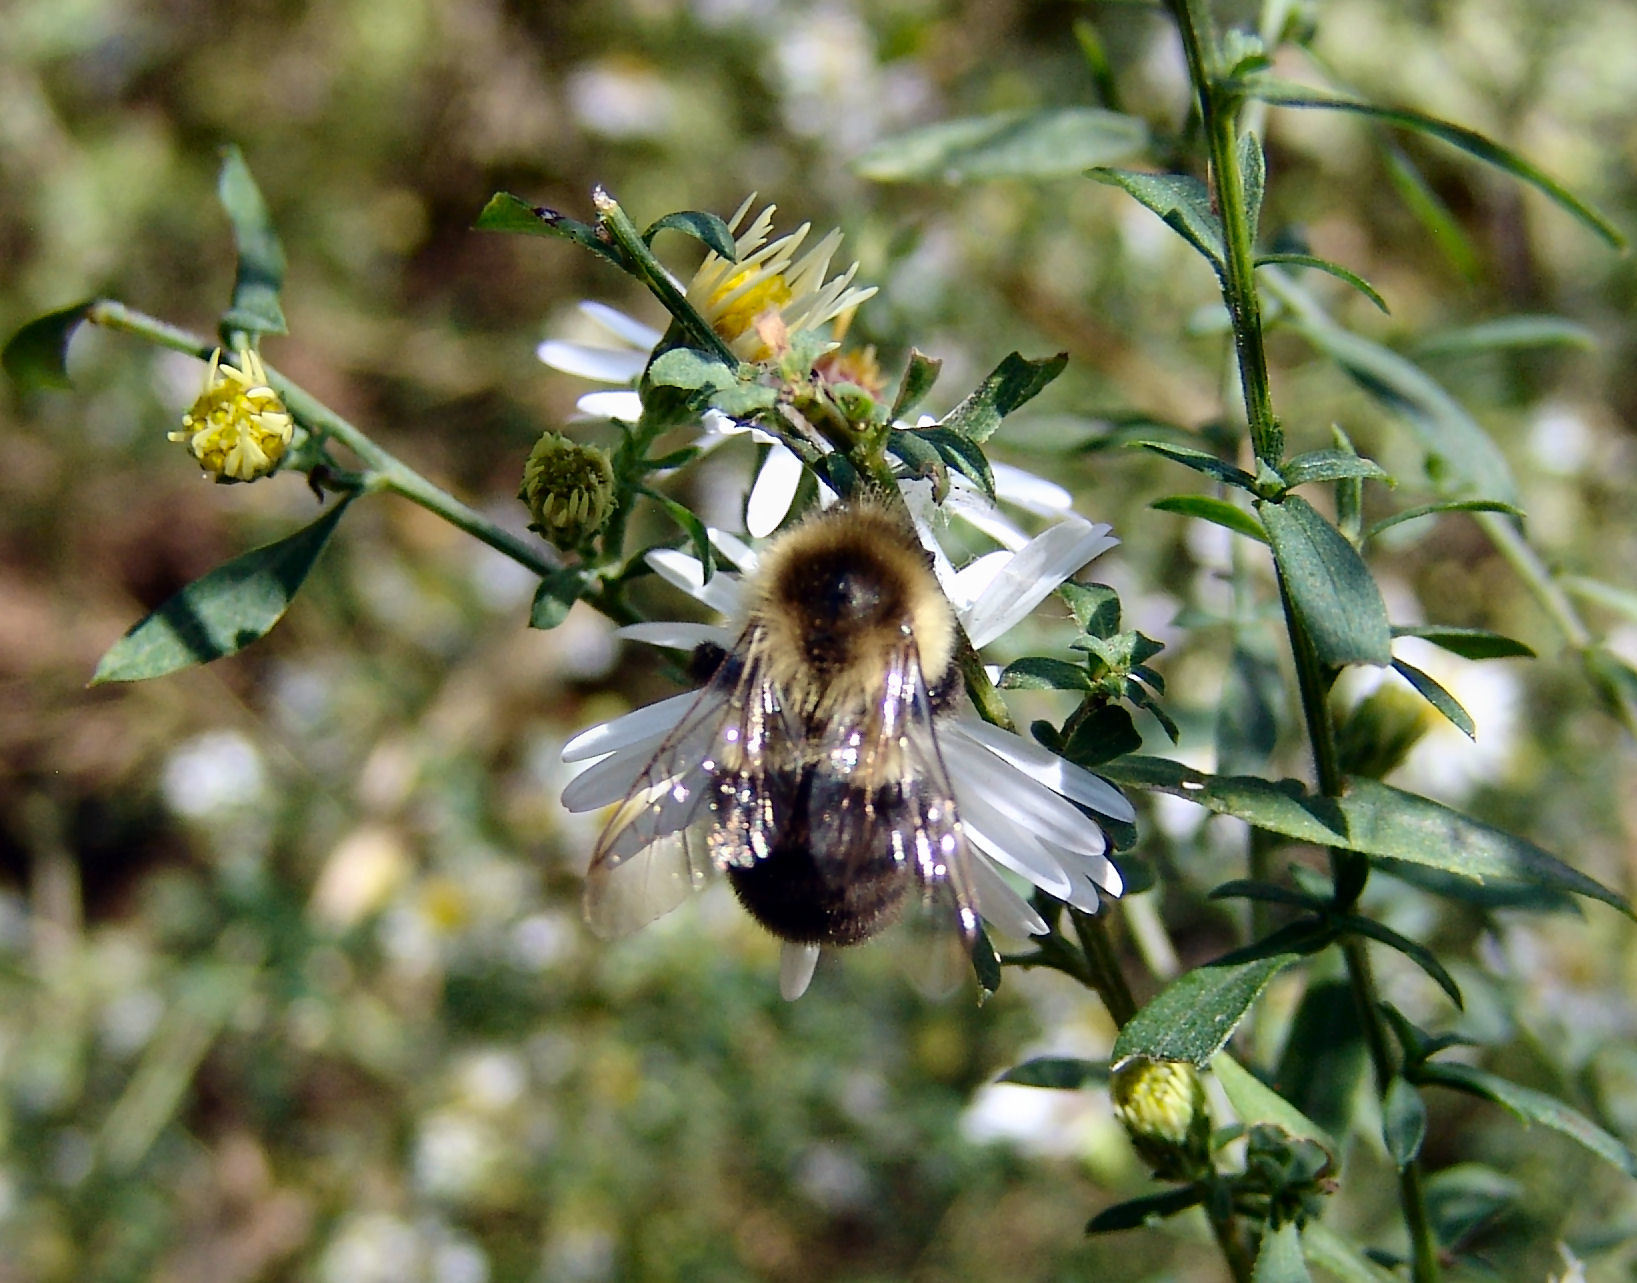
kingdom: Animalia
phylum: Arthropoda
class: Insecta
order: Hymenoptera
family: Apidae
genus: Bombus
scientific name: Bombus impatiens
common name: Common eastern bumble bee
